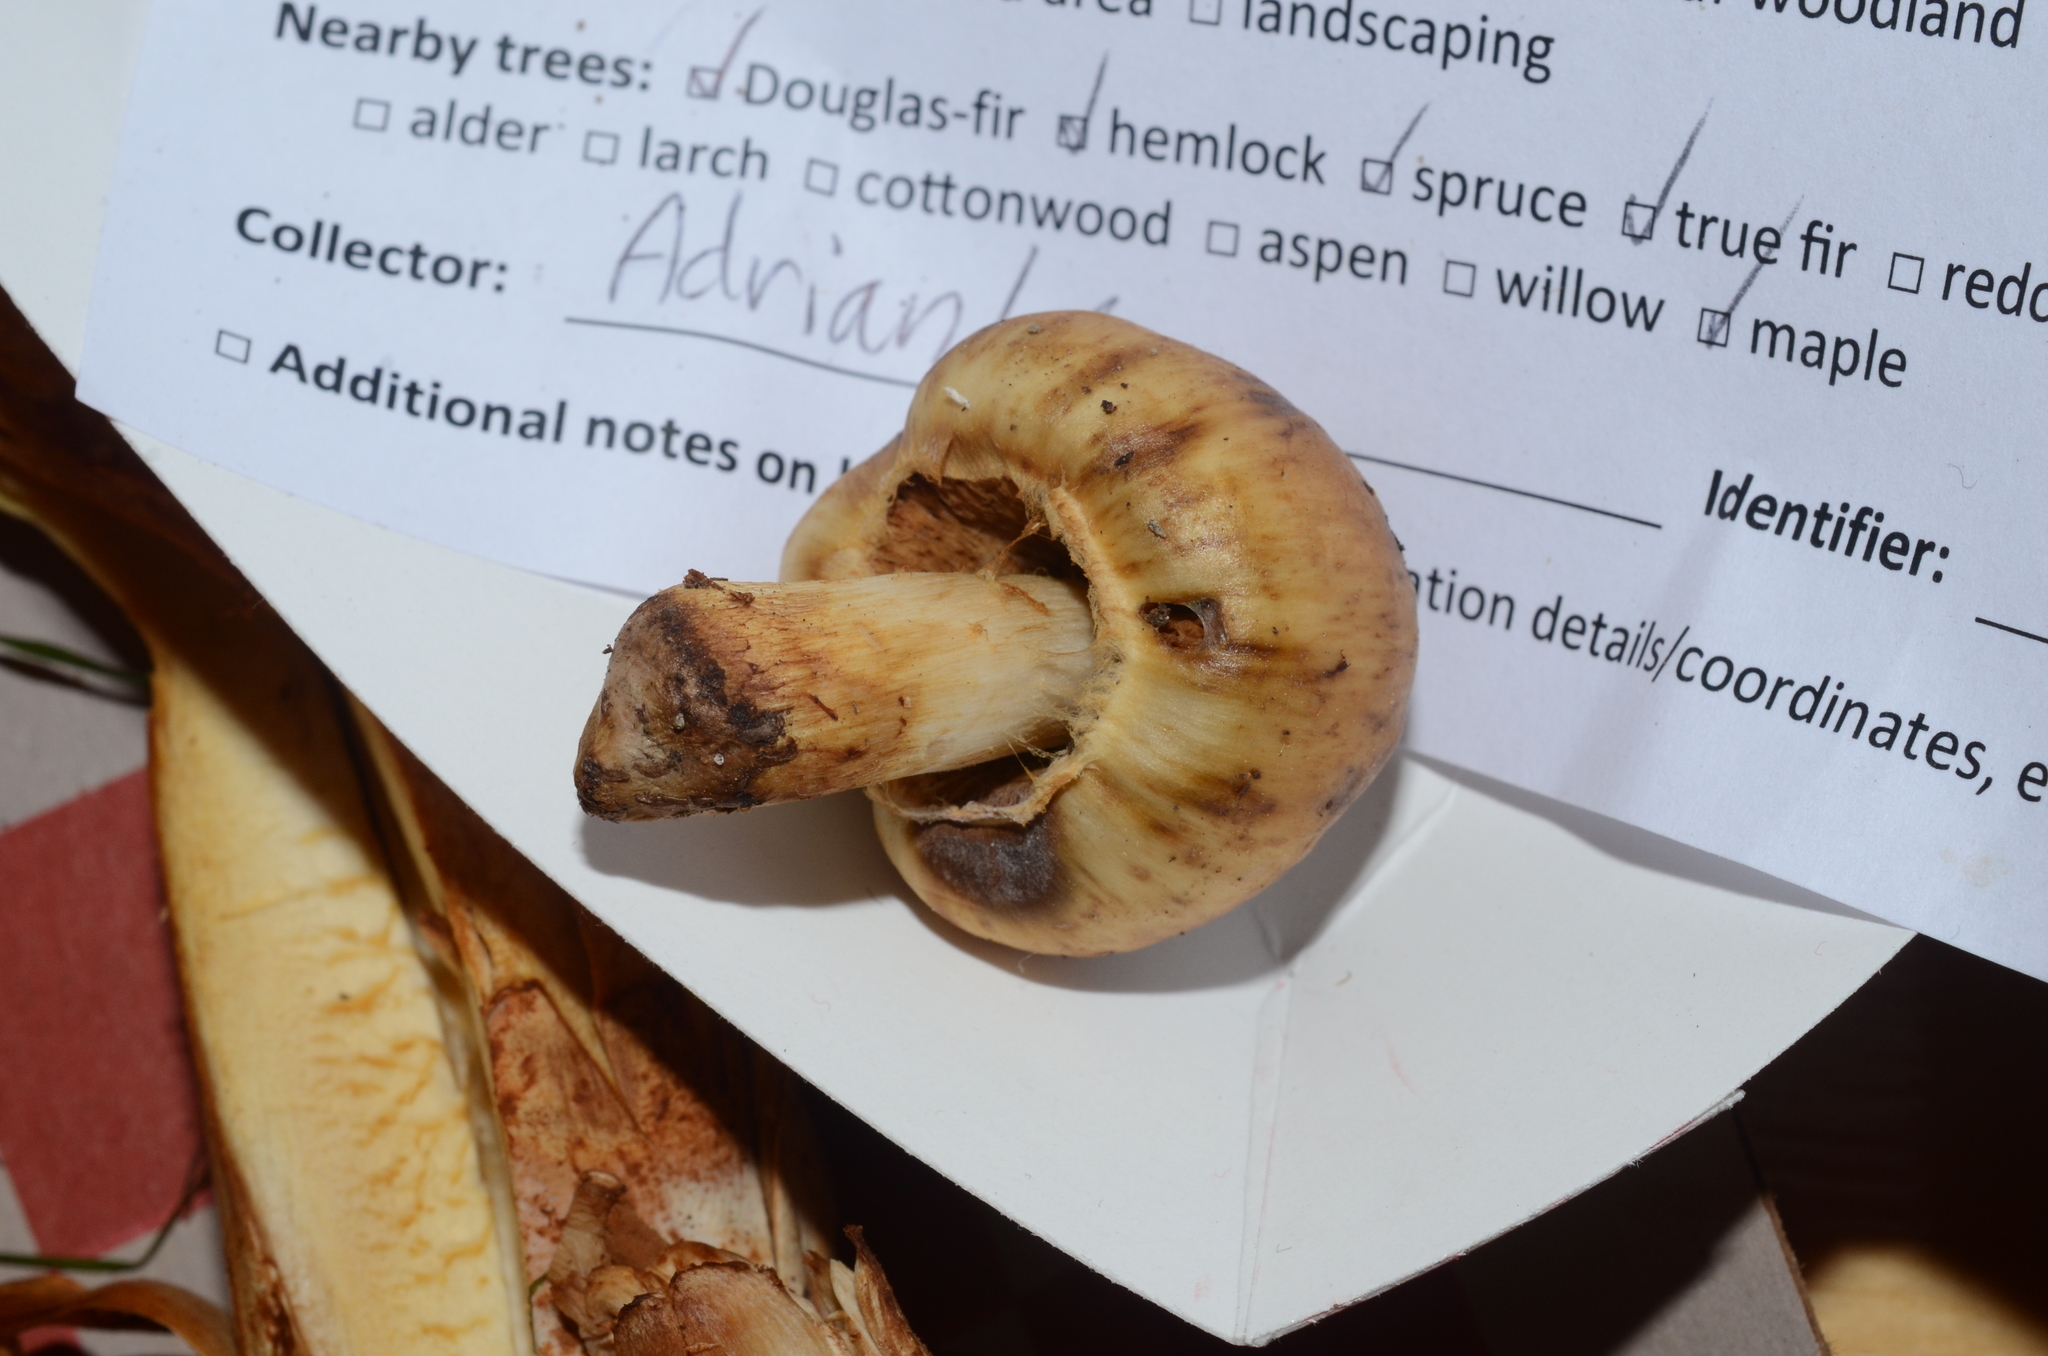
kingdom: Fungi
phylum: Basidiomycota
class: Agaricomycetes
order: Agaricales
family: Cortinariaceae
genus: Cortinarius
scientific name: Cortinarius pinguis
